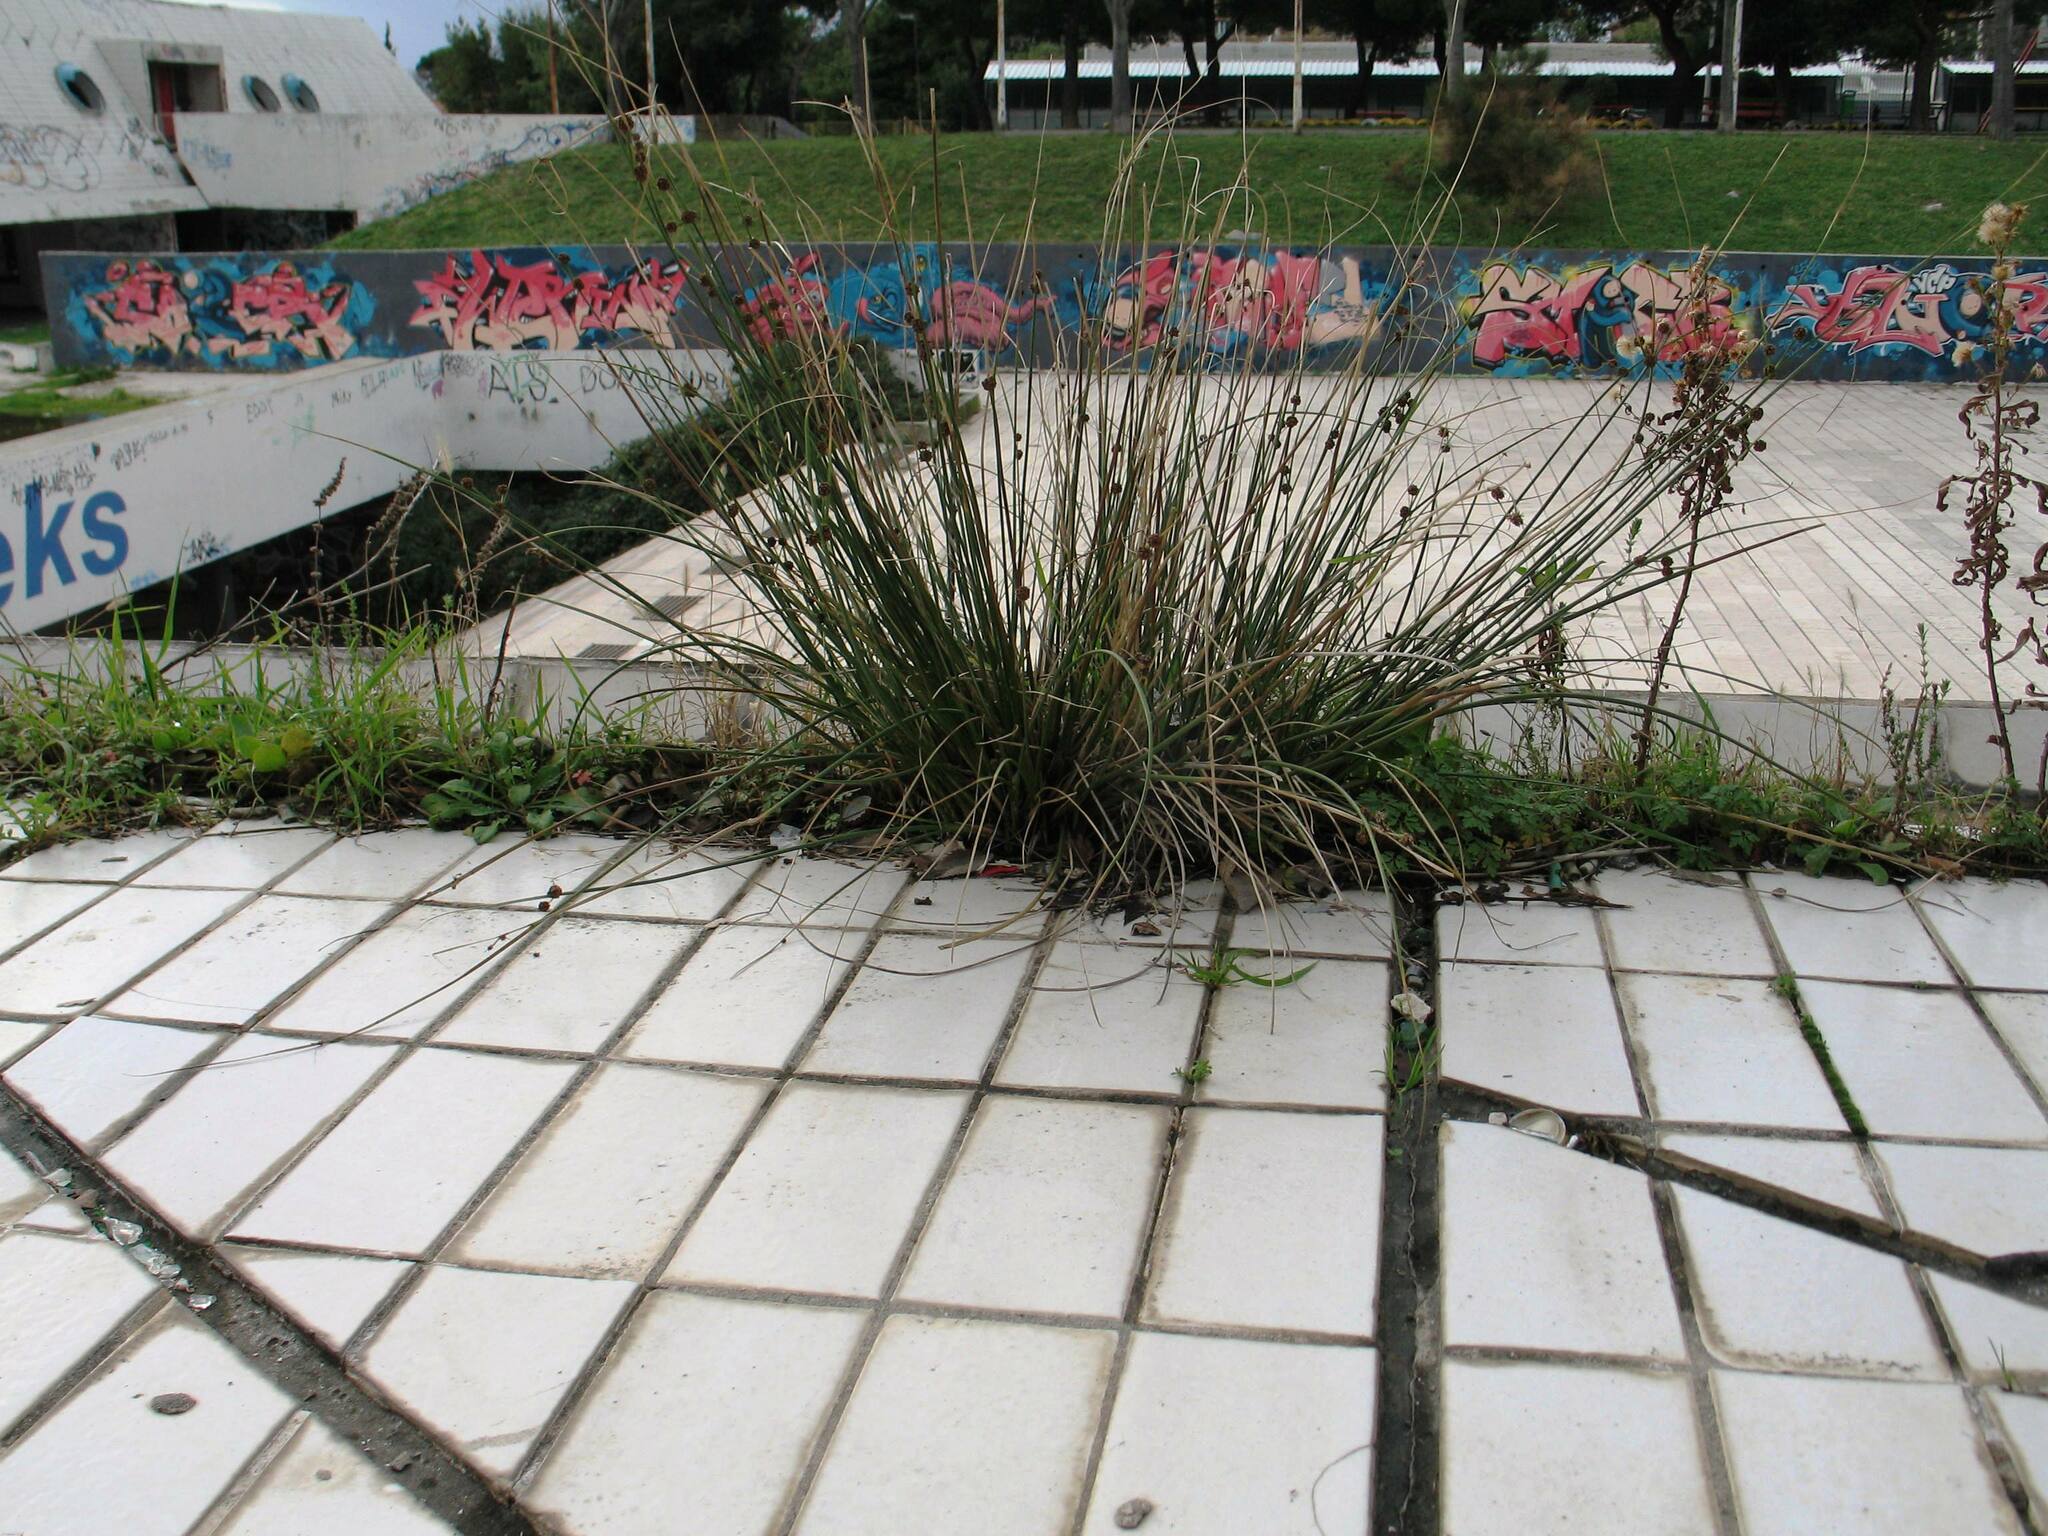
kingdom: Plantae
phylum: Tracheophyta
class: Liliopsida
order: Poales
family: Cyperaceae
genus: Scirpoides
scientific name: Scirpoides holoschoenus
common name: Round-headed club-rush
